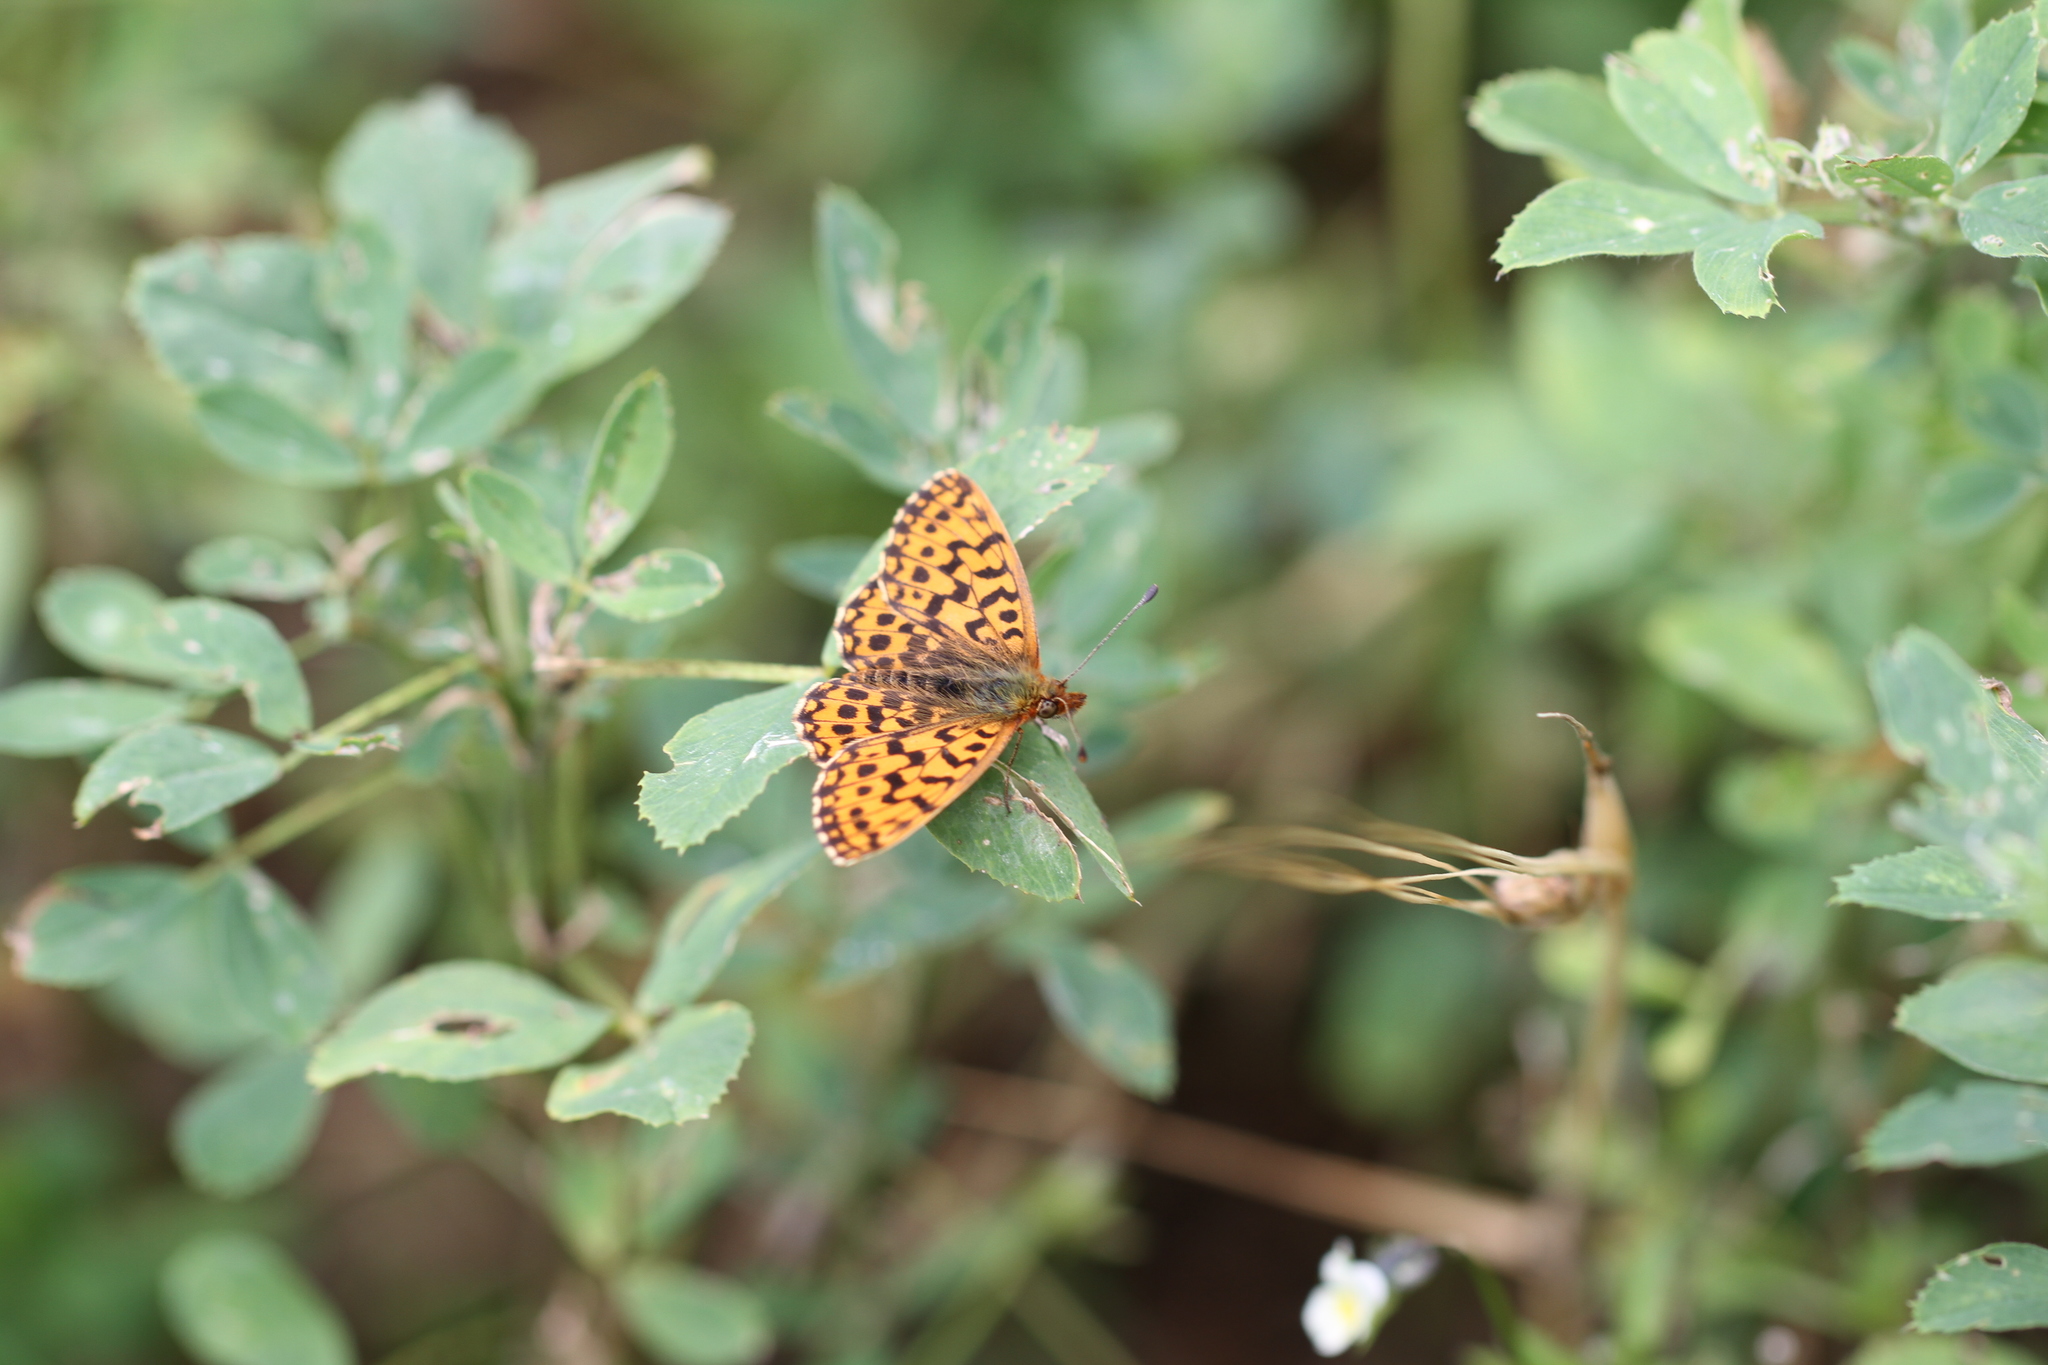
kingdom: Animalia
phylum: Arthropoda
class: Insecta
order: Lepidoptera
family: Nymphalidae
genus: Boloria
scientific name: Boloria dia
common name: Weaver's fritillary
